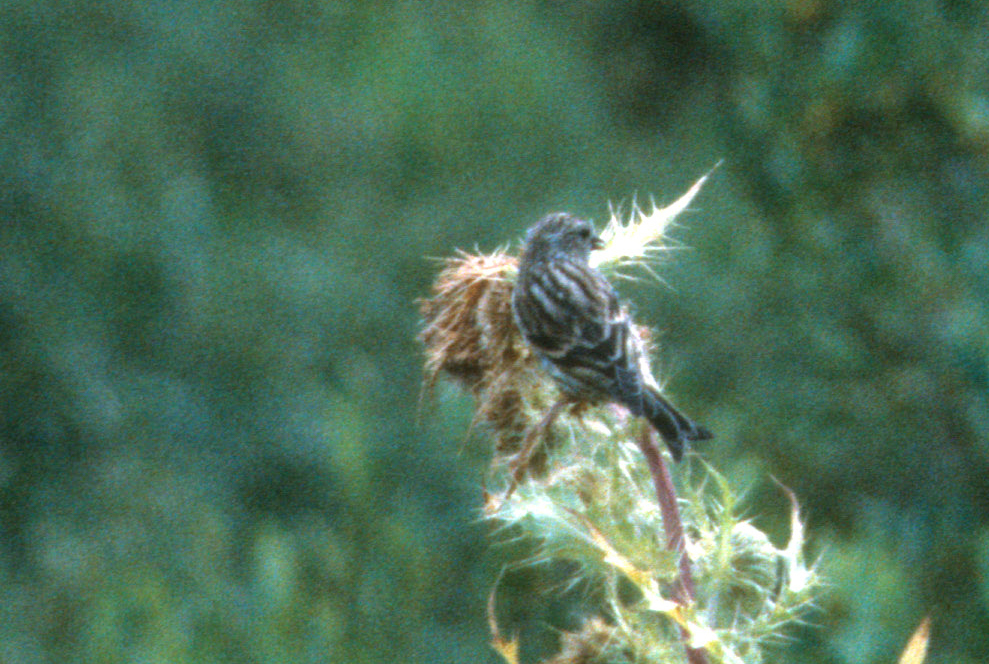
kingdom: Animalia
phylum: Chordata
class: Aves
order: Passeriformes
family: Fringillidae
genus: Spinus
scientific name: Spinus pinus
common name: Pine siskin
